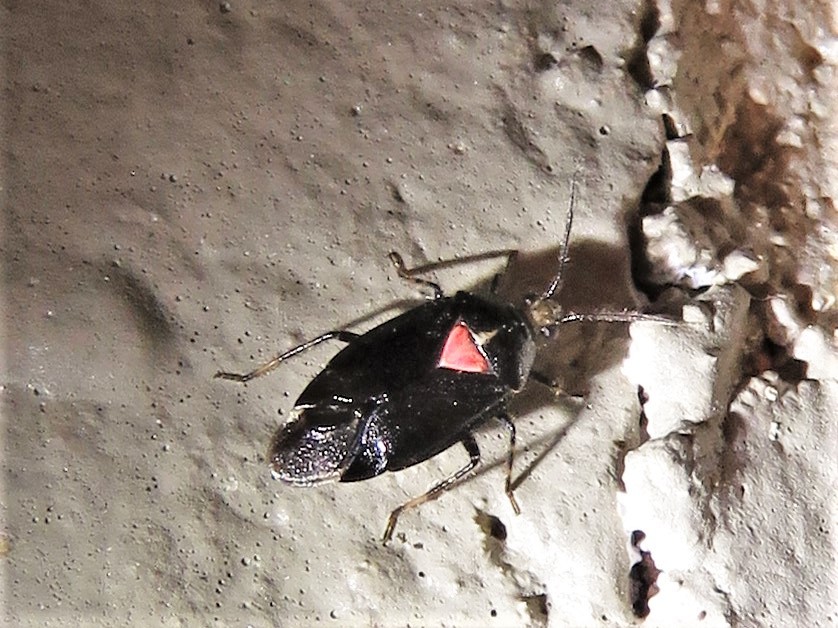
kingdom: Animalia
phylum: Arthropoda
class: Insecta
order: Hemiptera
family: Miridae
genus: Deraeocoris
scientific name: Deraeocoris sayi
